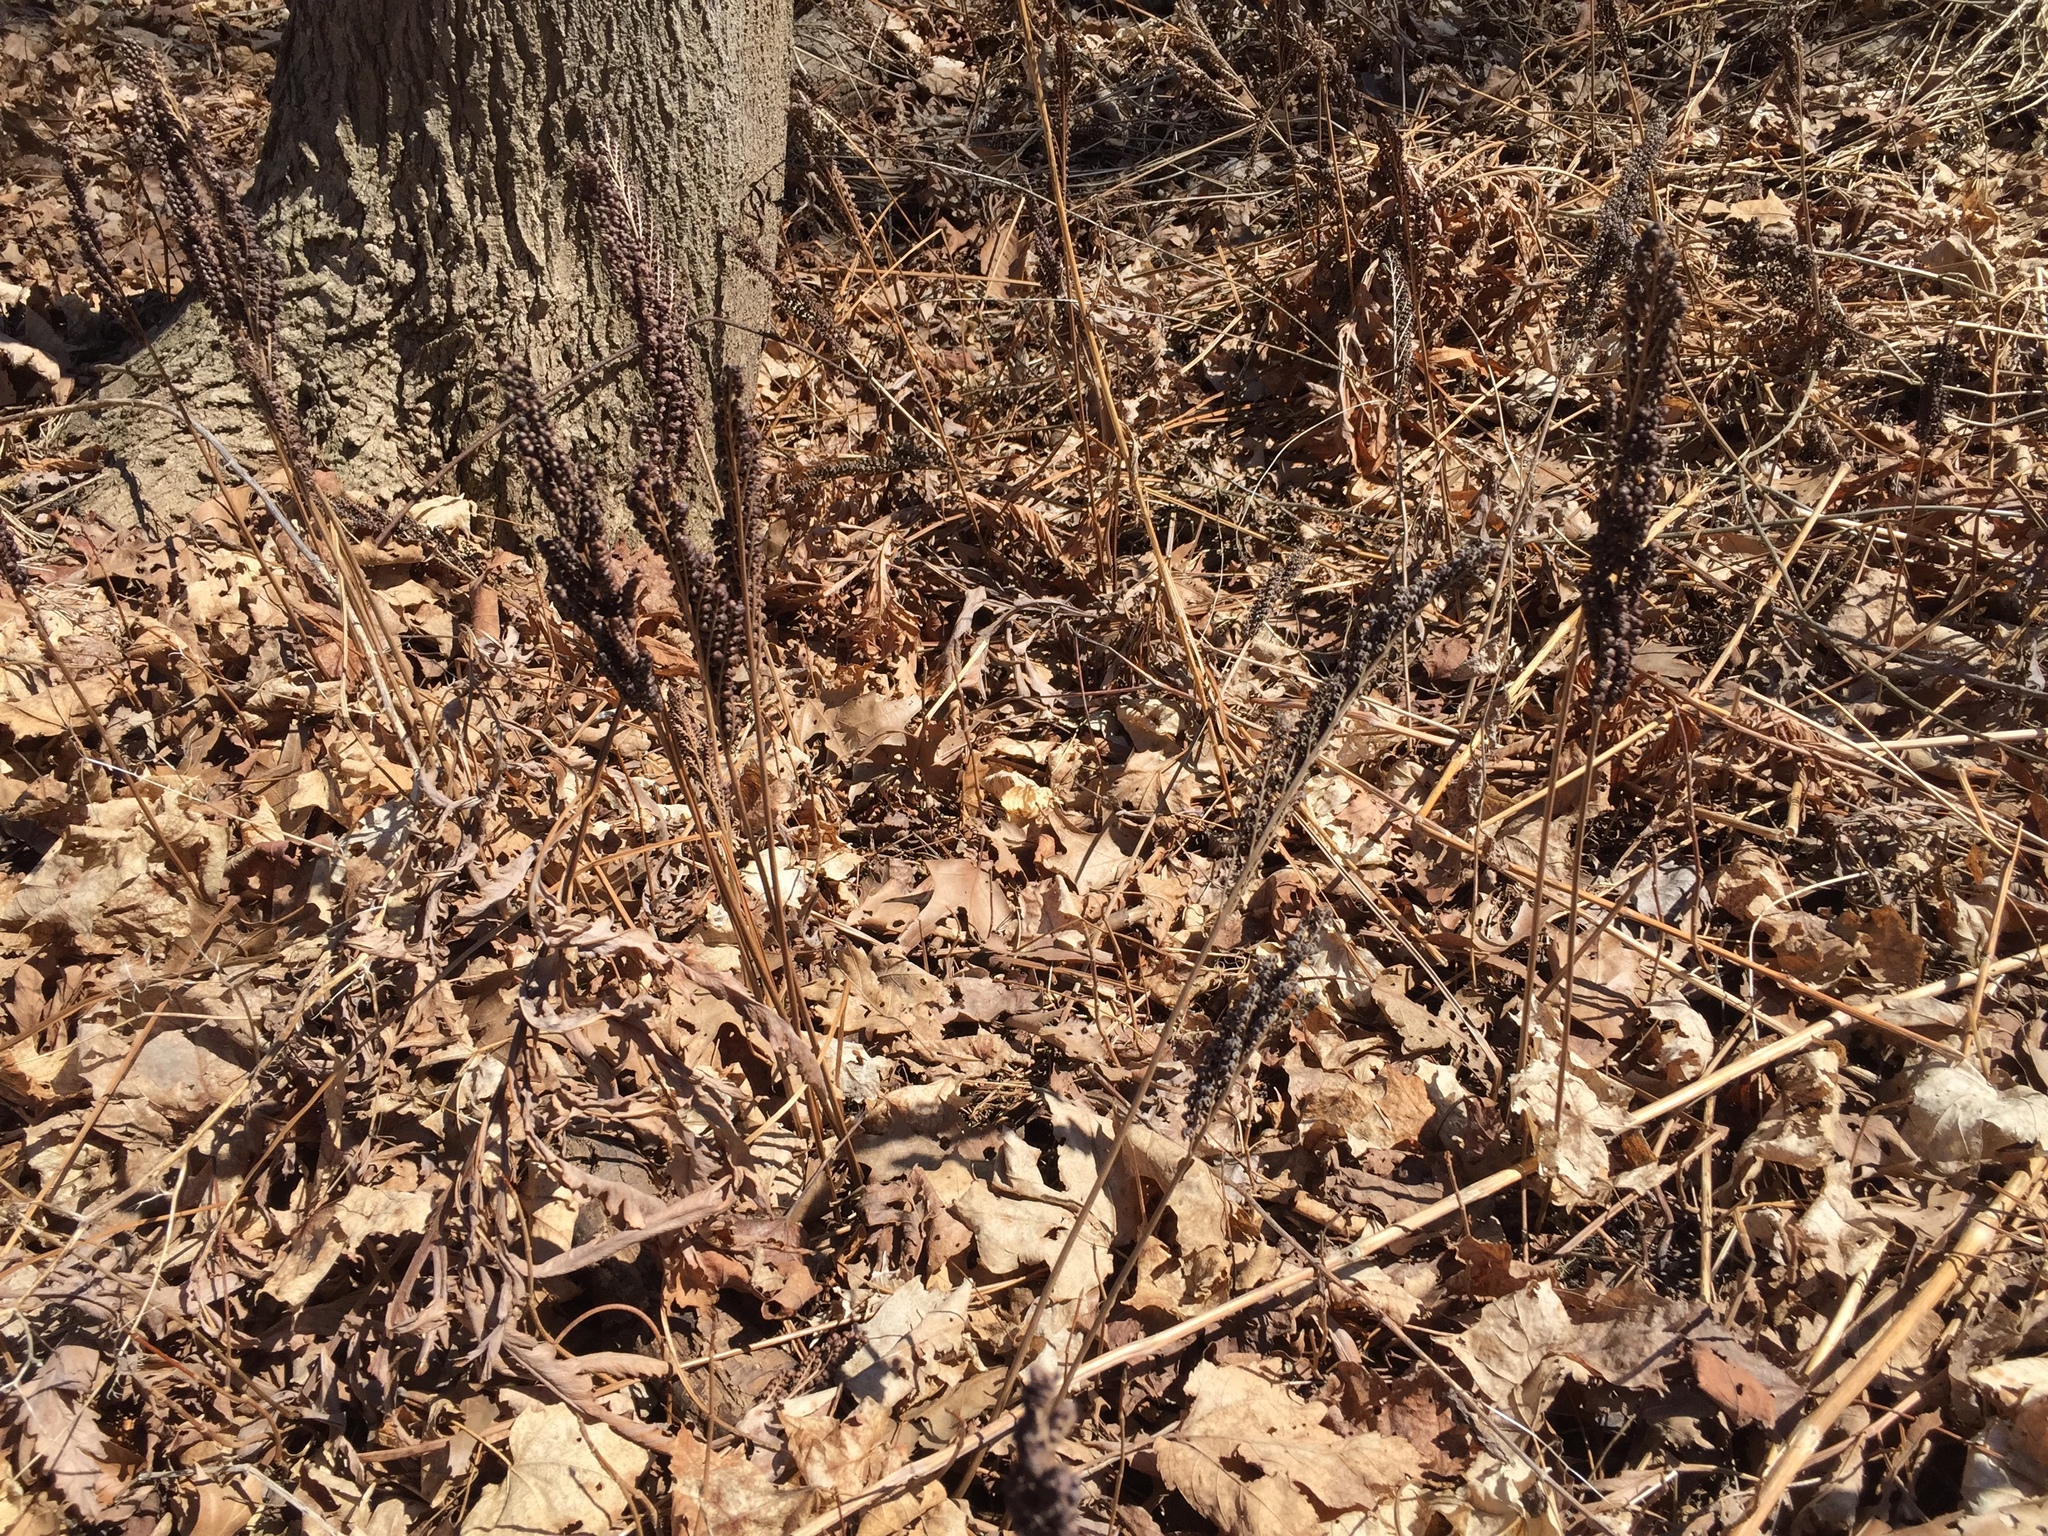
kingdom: Plantae
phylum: Tracheophyta
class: Polypodiopsida
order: Polypodiales
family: Onocleaceae
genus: Onoclea
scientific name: Onoclea sensibilis
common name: Sensitive fern
